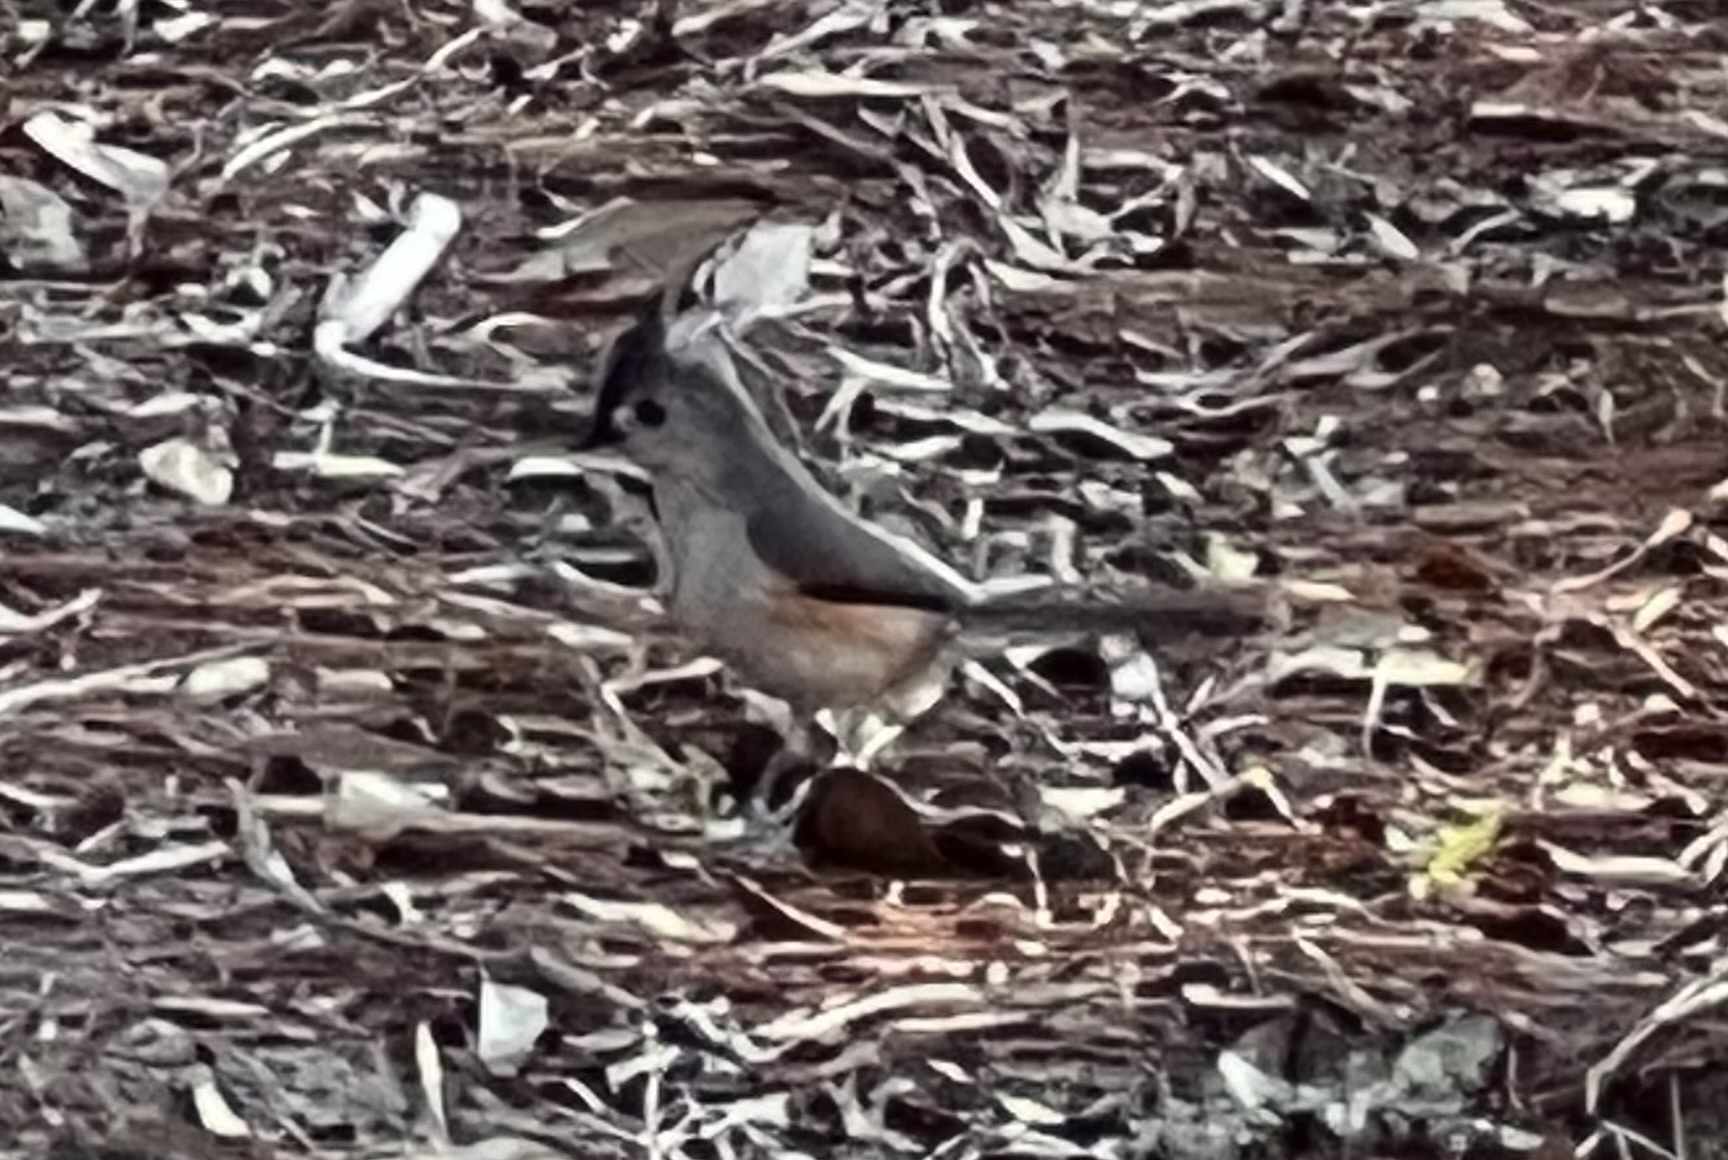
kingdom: Animalia
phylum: Chordata
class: Aves
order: Passeriformes
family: Paridae
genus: Baeolophus
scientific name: Baeolophus bicolor
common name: Tufted titmouse
